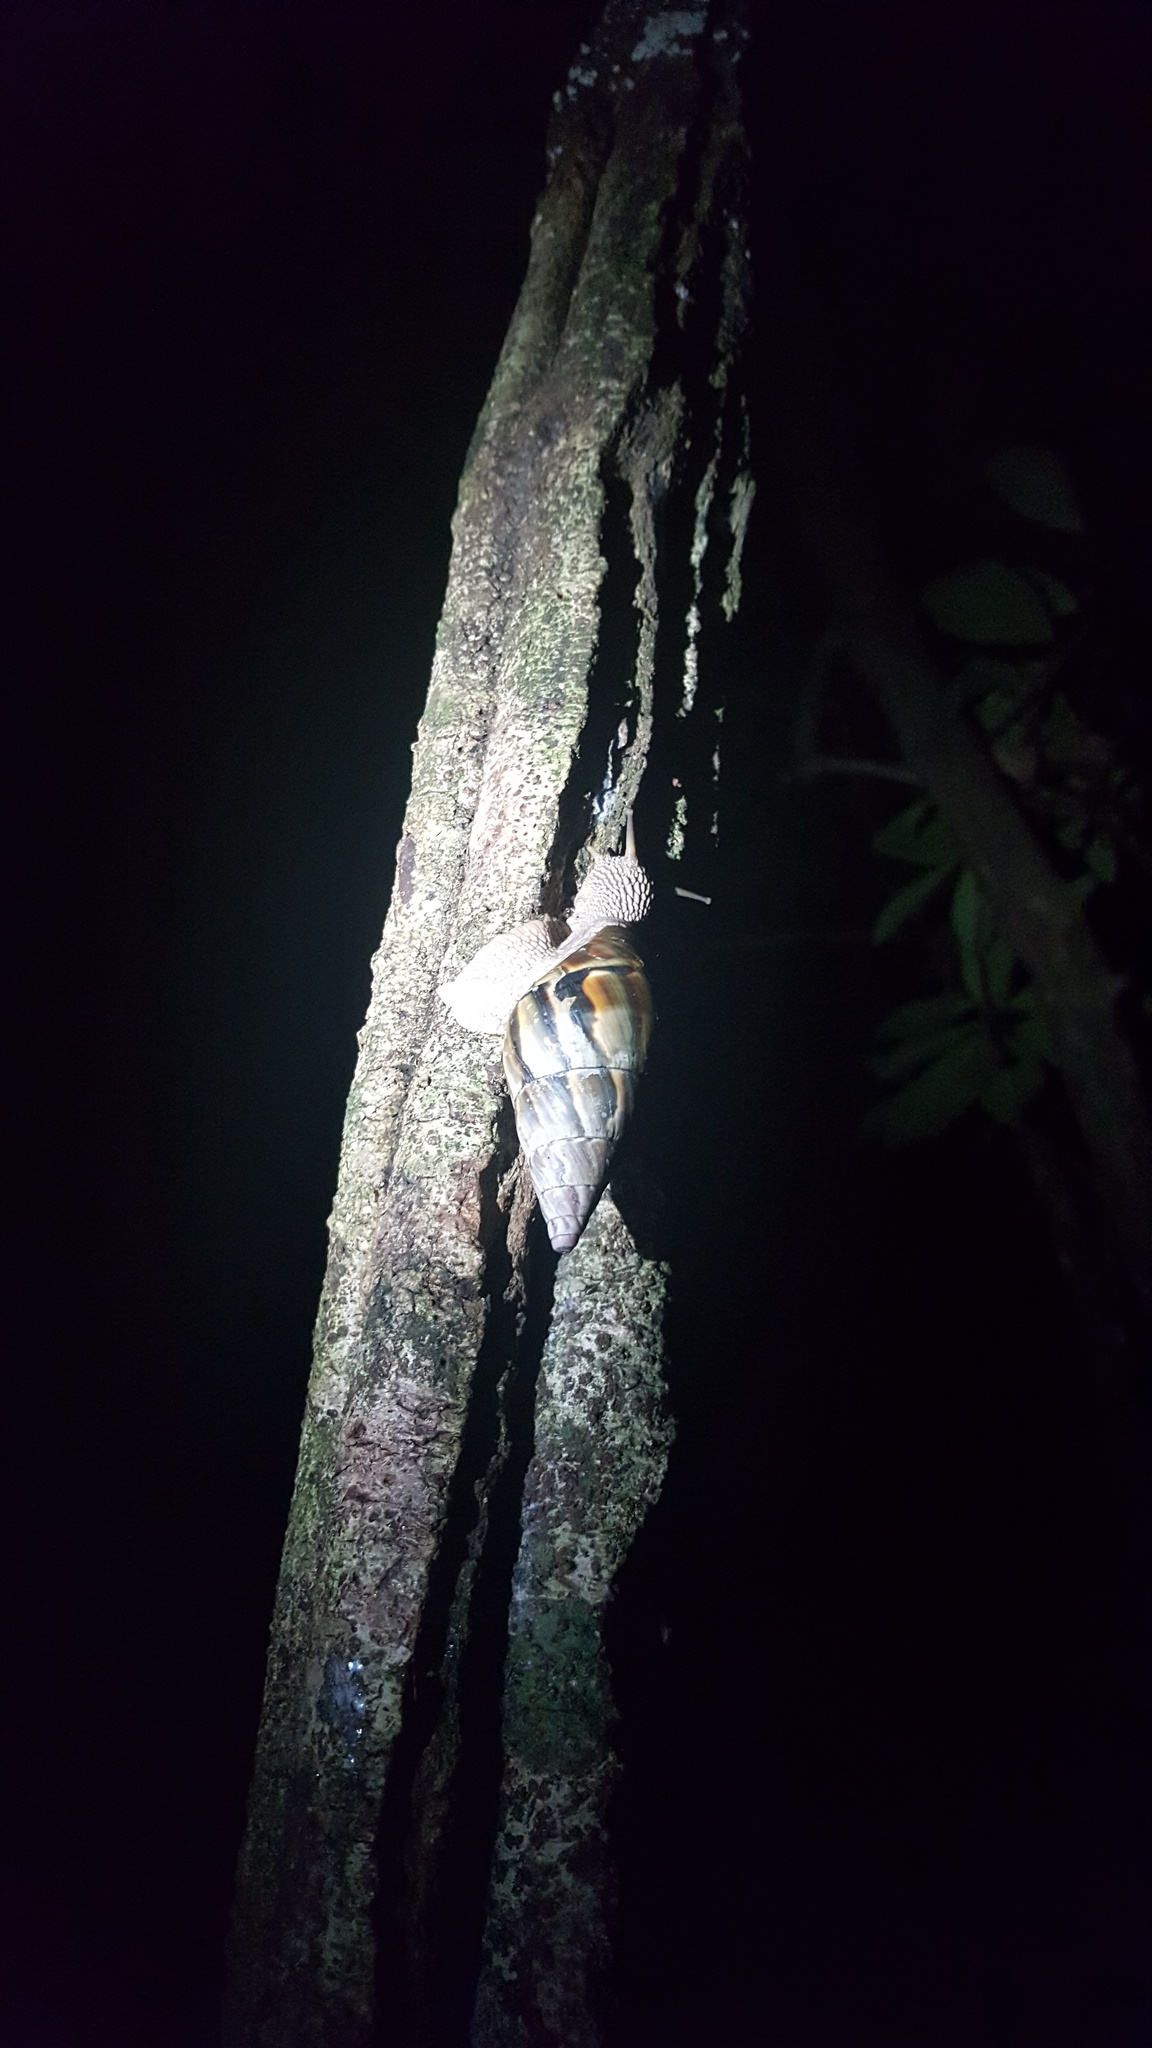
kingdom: Animalia
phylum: Mollusca
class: Gastropoda
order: Stylommatophora
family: Orthalicidae
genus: Corona
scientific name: Corona incisa
